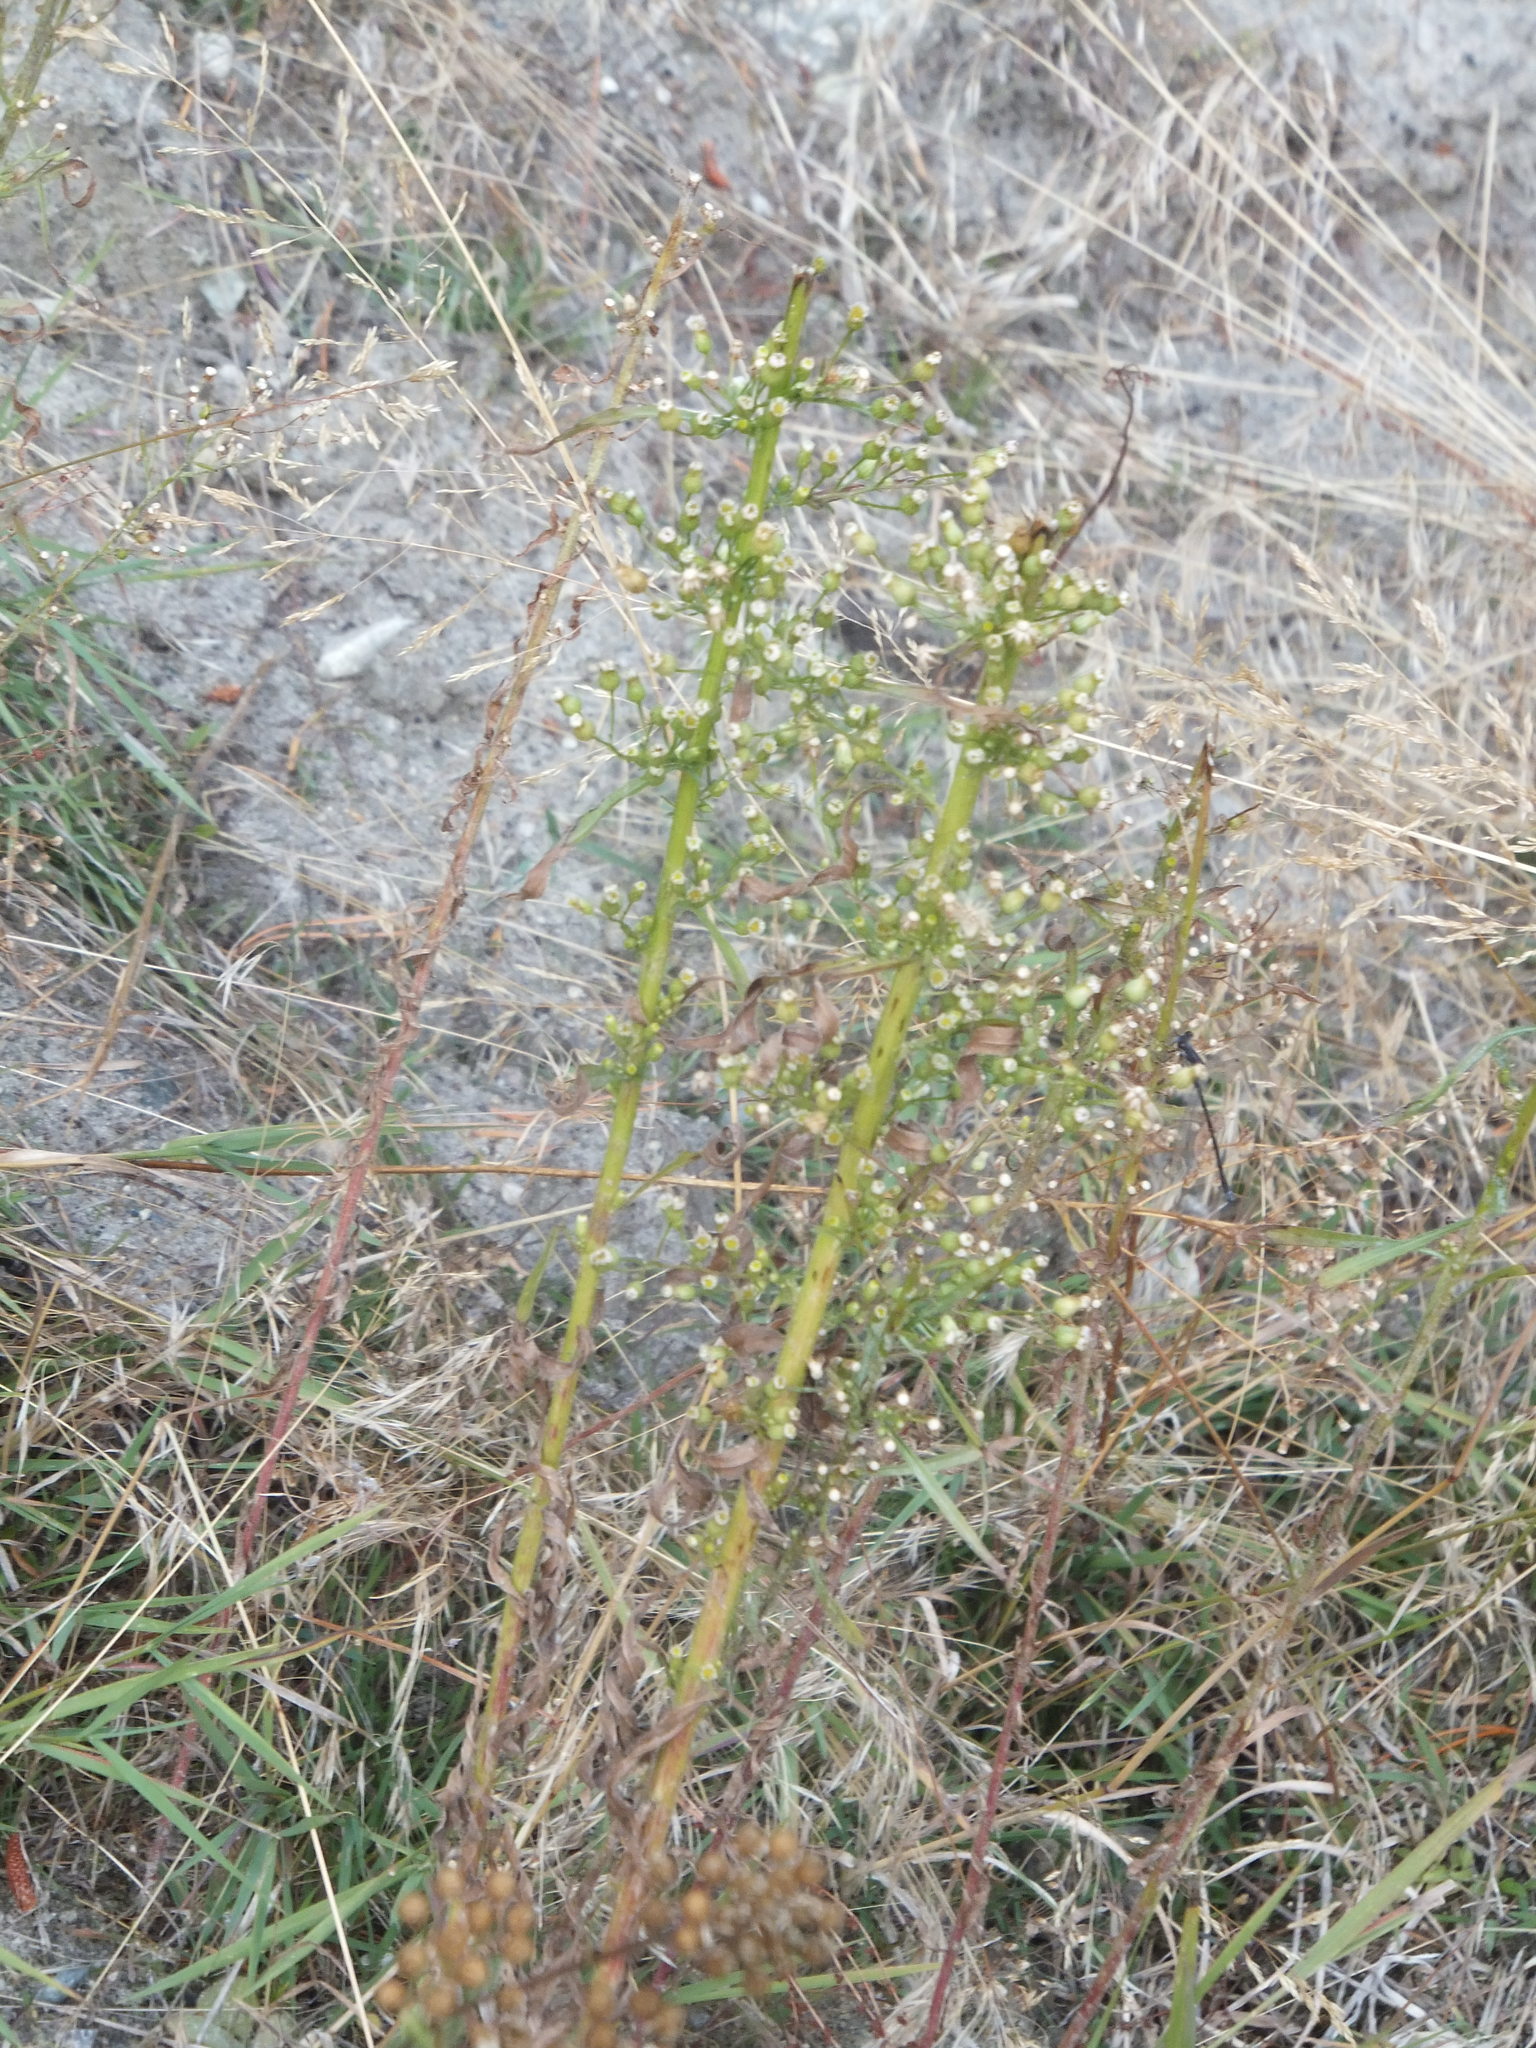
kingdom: Plantae
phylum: Tracheophyta
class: Magnoliopsida
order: Asterales
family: Asteraceae
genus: Erigeron
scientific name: Erigeron canadensis
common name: Canadian fleabane
